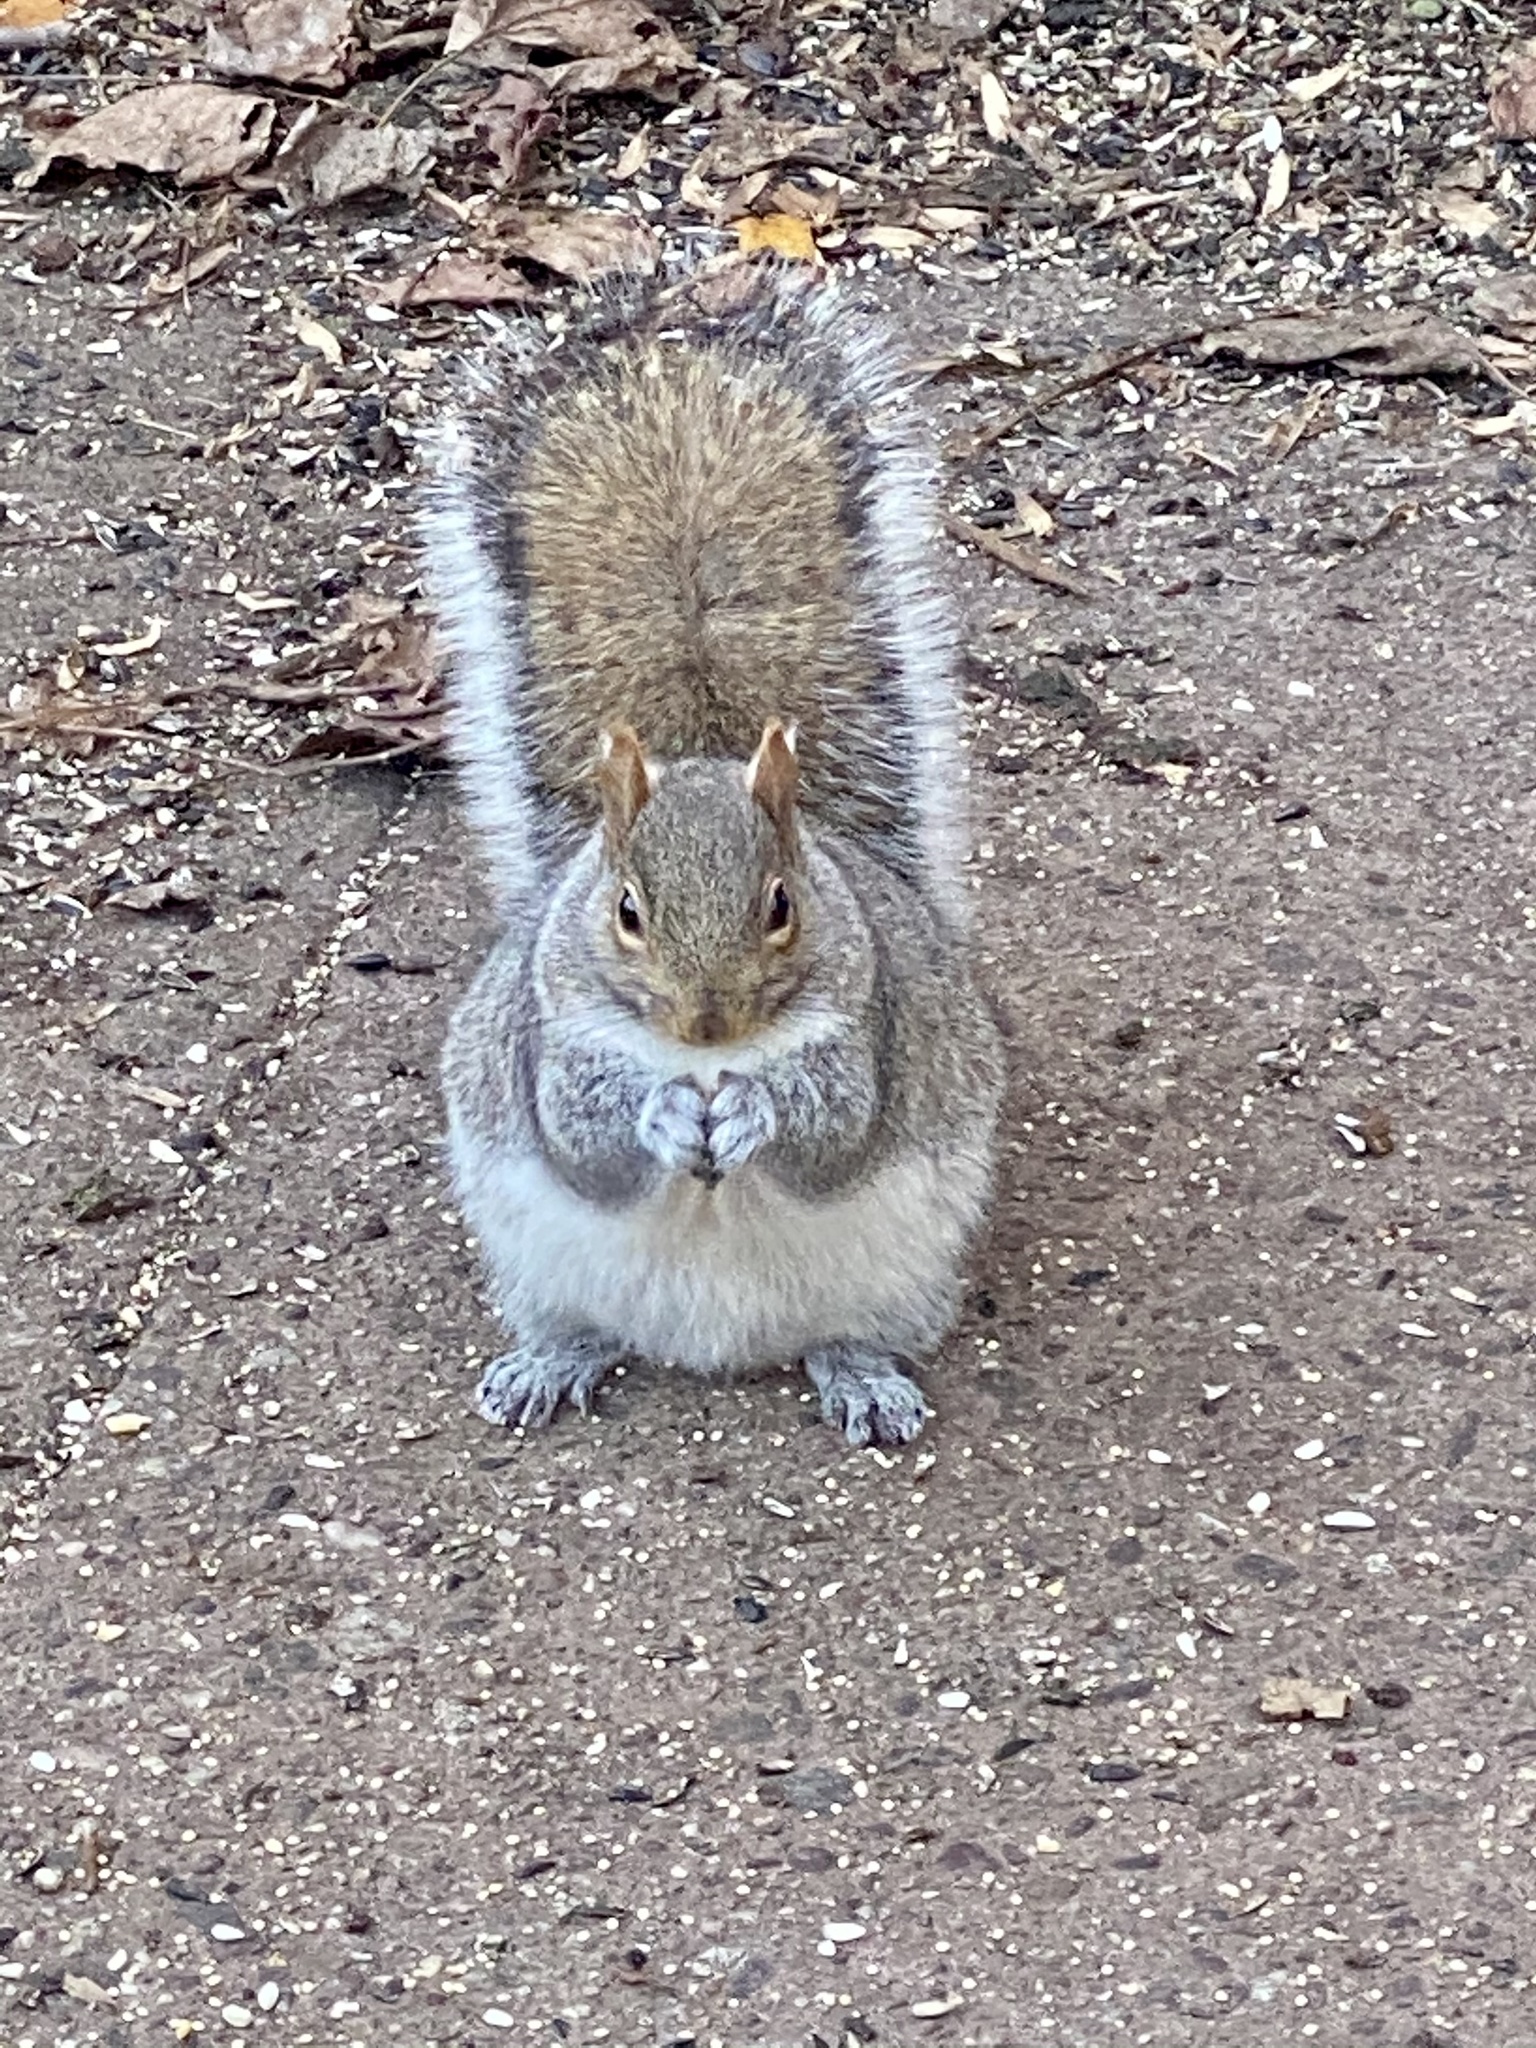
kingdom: Animalia
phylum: Chordata
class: Mammalia
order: Rodentia
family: Sciuridae
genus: Sciurus
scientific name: Sciurus carolinensis
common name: Eastern gray squirrel
